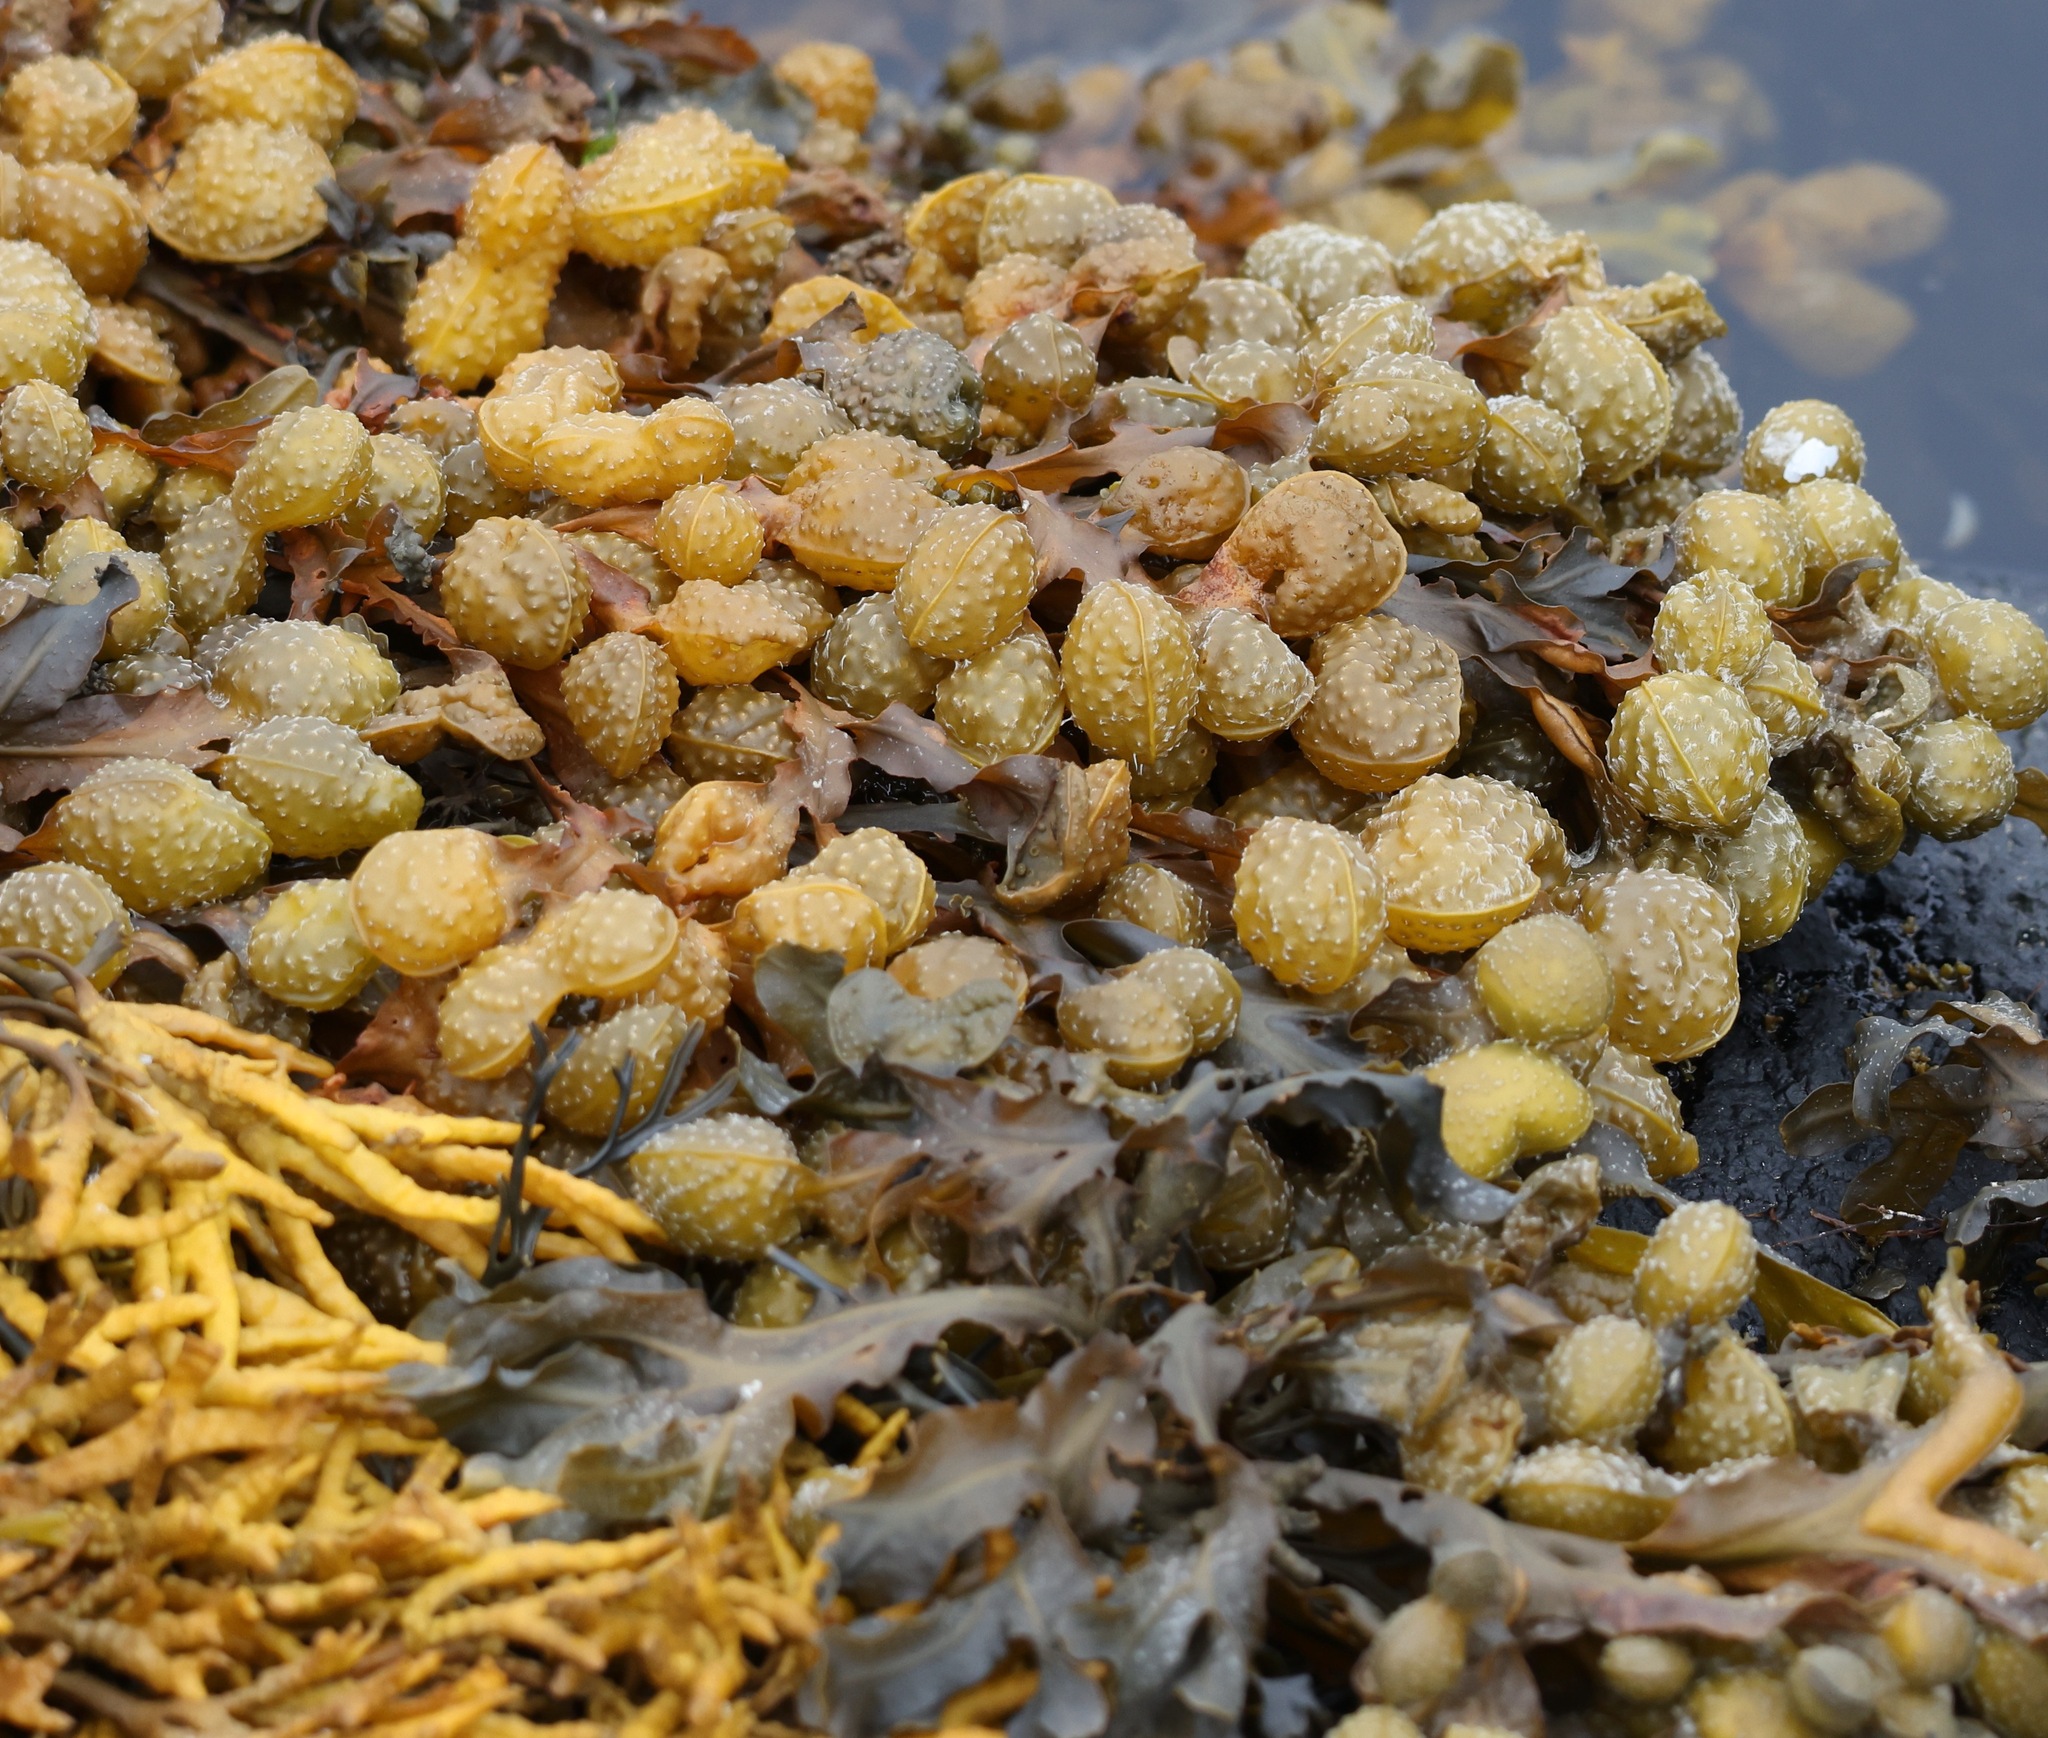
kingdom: Chromista
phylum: Ochrophyta
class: Phaeophyceae
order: Fucales
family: Fucaceae
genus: Fucus
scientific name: Fucus spiralis
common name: Spiral wrack
